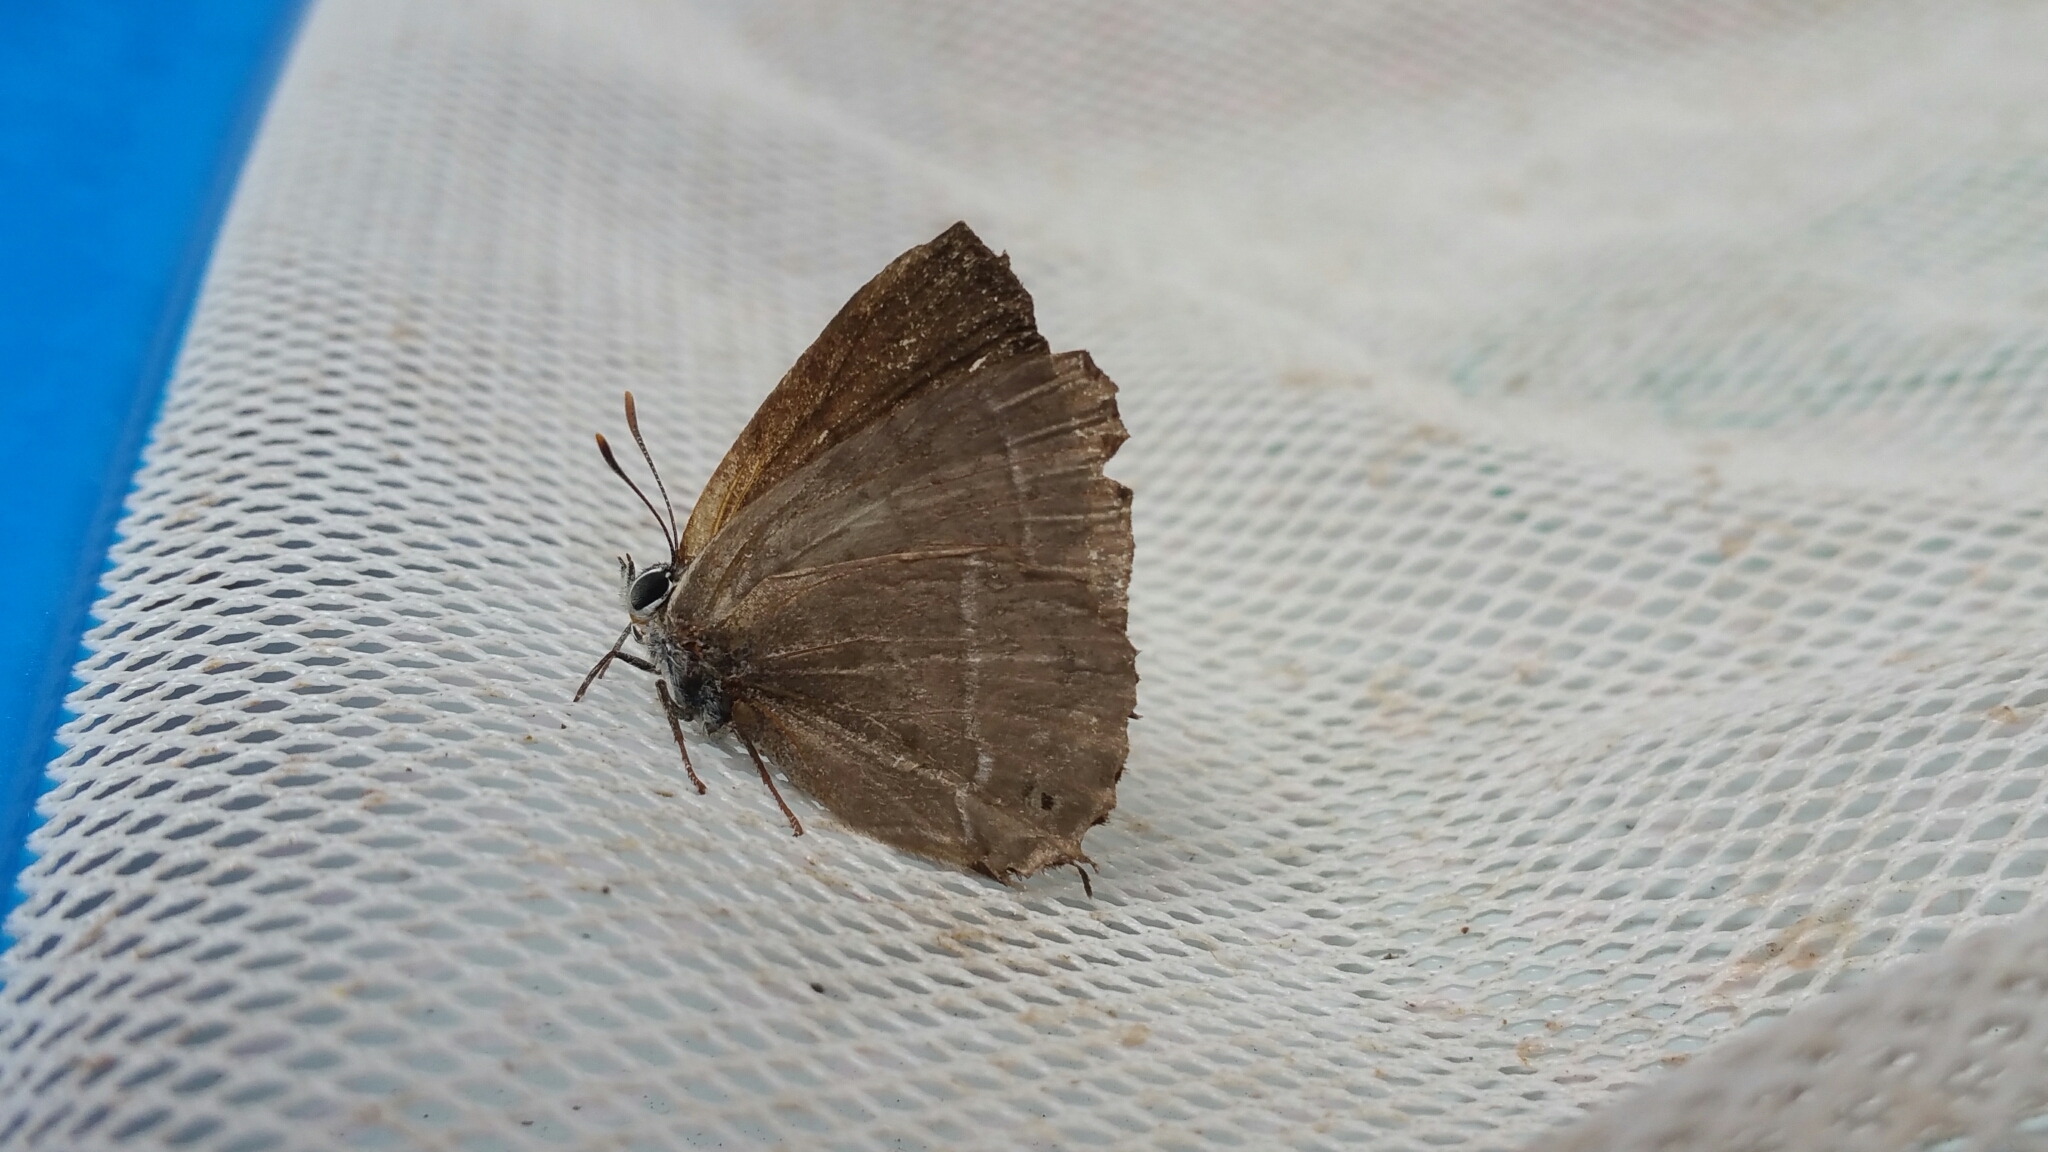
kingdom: Animalia
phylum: Arthropoda
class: Insecta
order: Lepidoptera
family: Lycaenidae
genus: Quercusia
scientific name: Quercusia quercus
